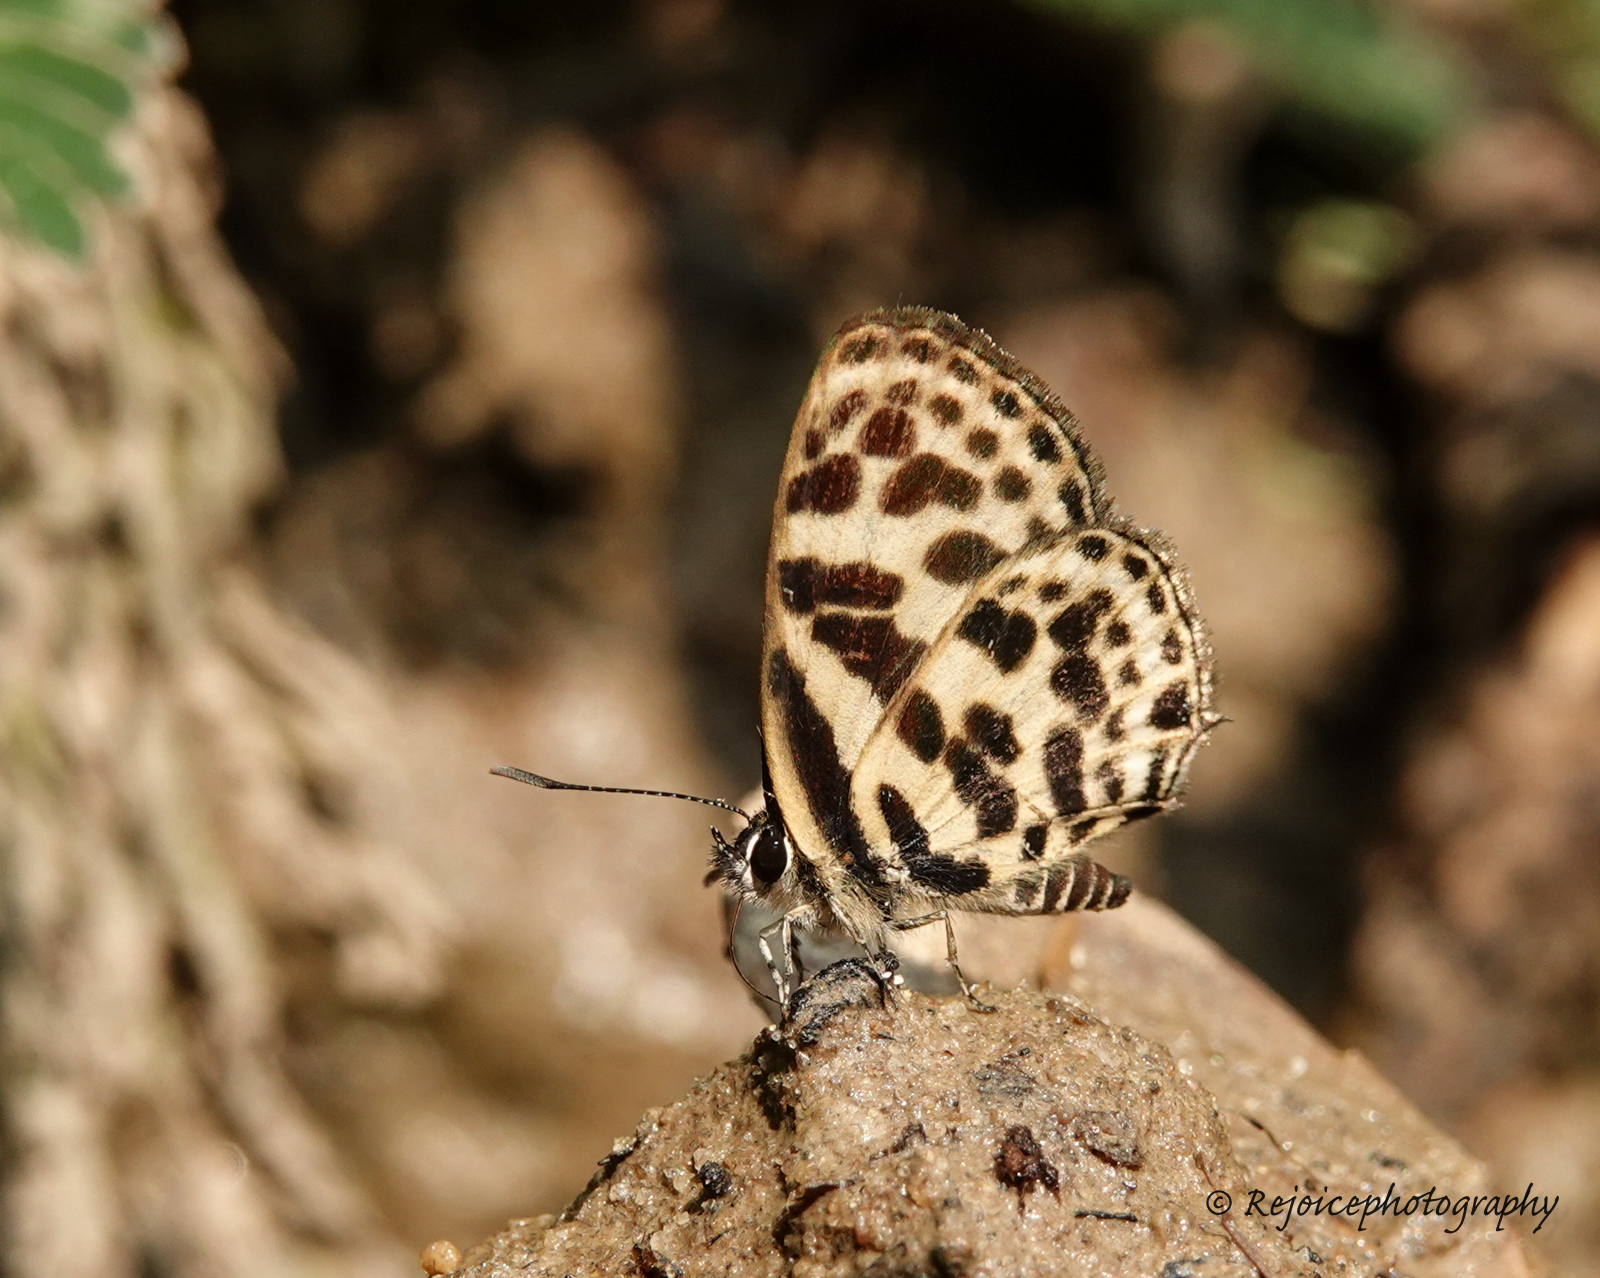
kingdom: Animalia
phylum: Arthropoda
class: Insecta
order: Lepidoptera
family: Lycaenidae
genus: Tarucus
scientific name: Tarucus
